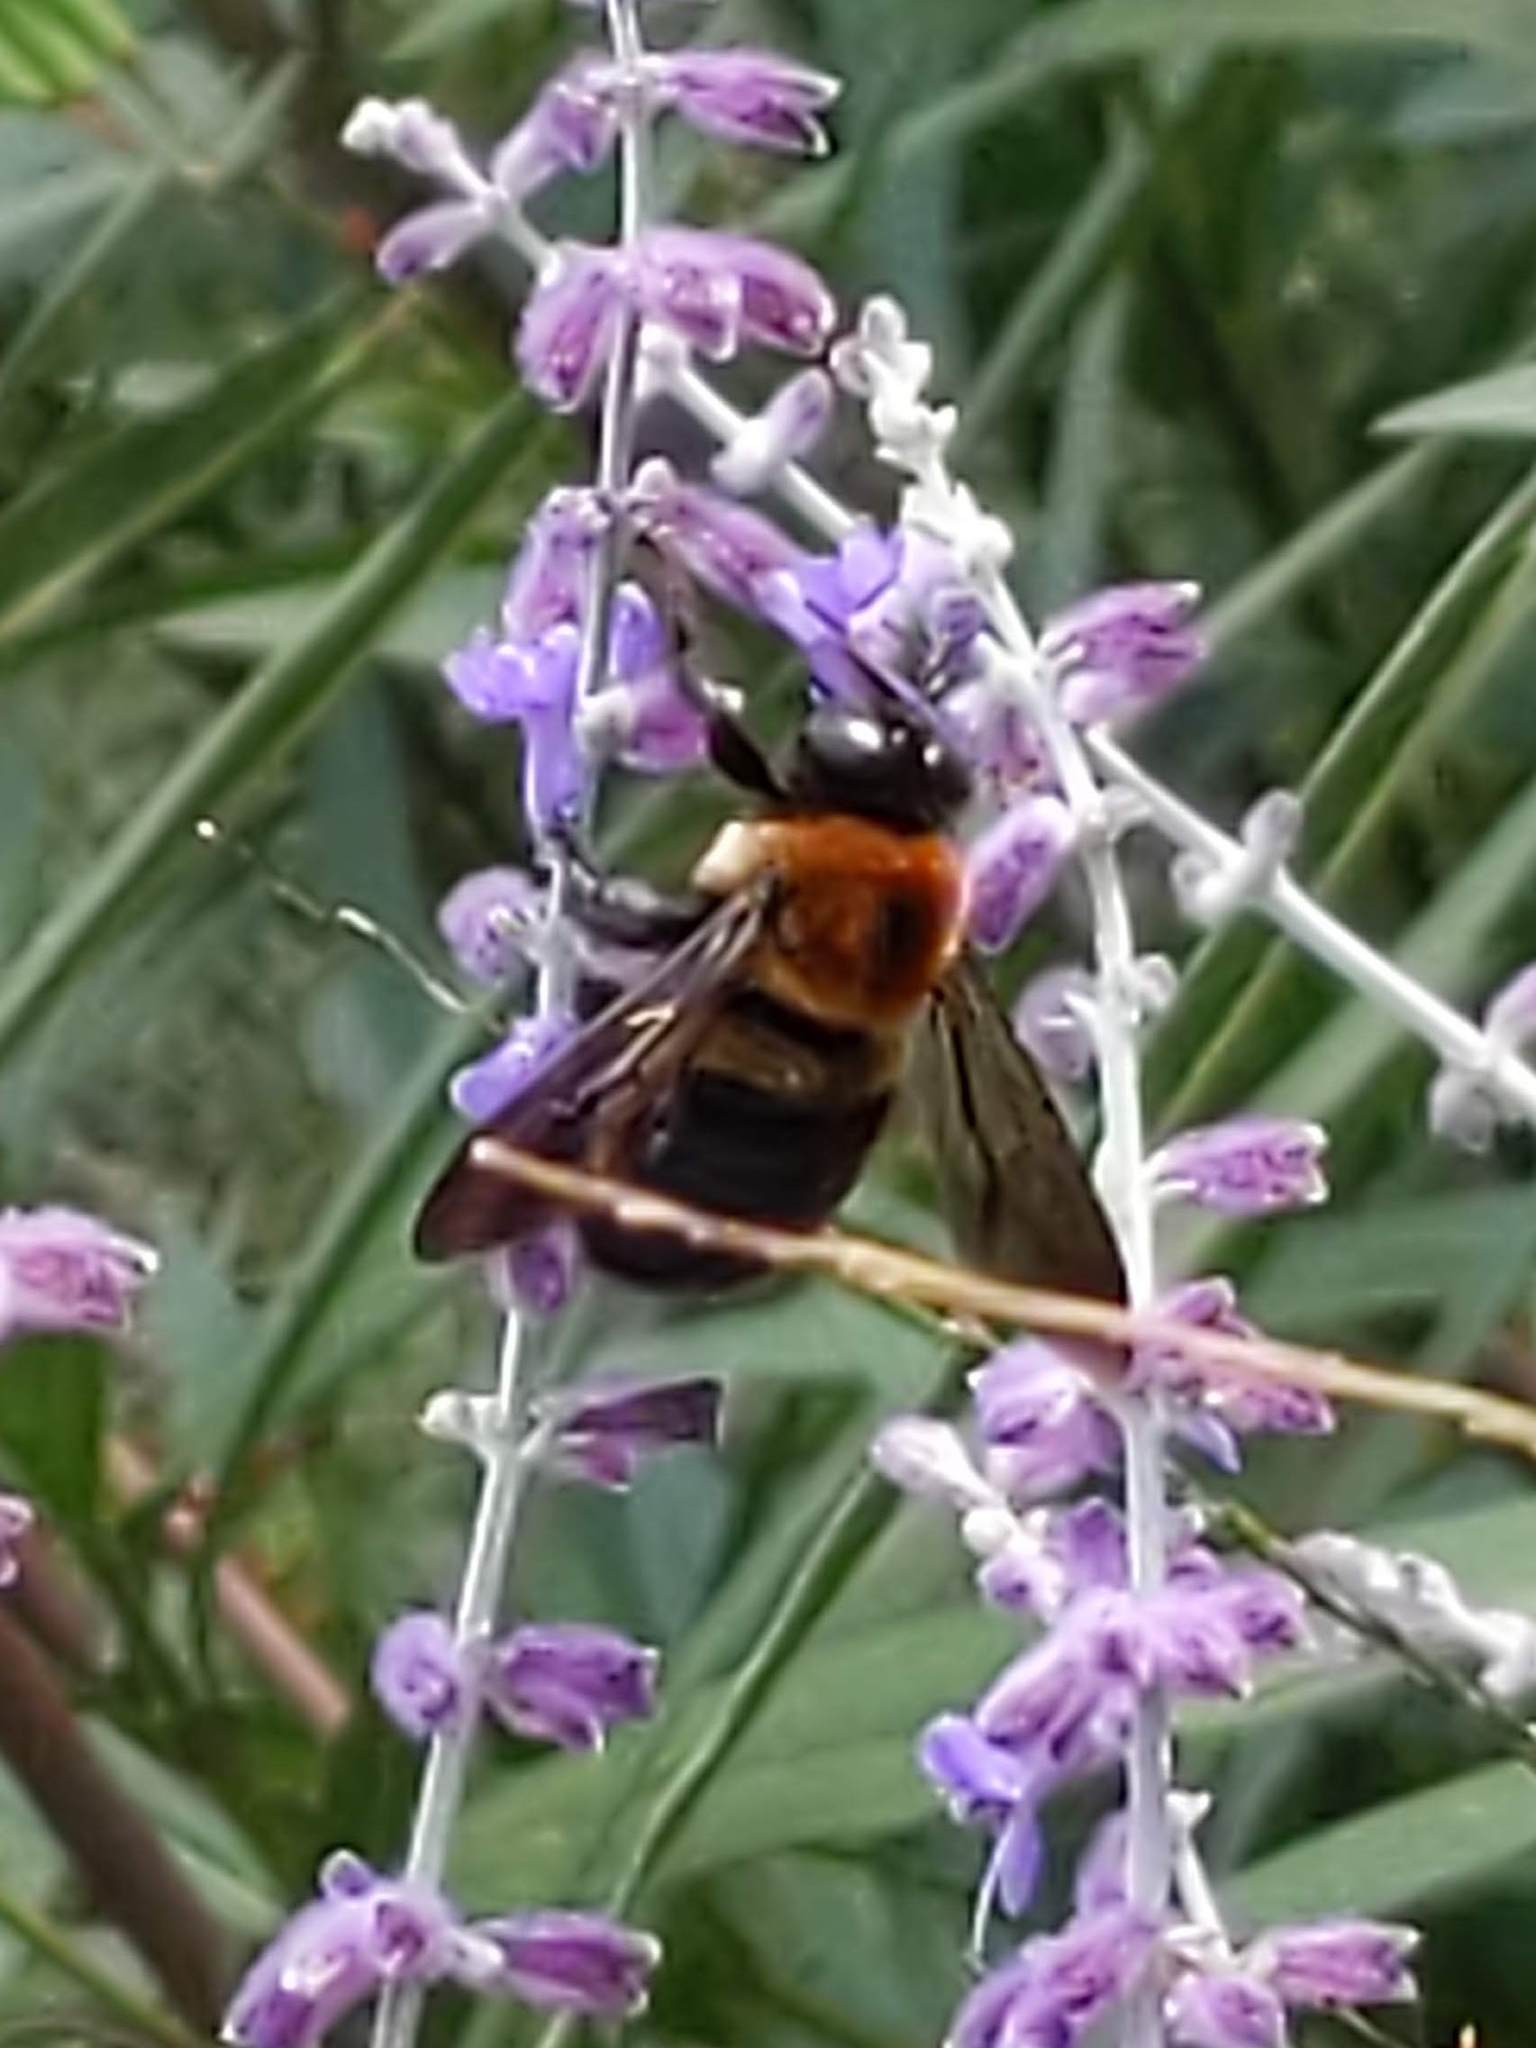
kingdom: Animalia
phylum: Arthropoda
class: Insecta
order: Hymenoptera
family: Apidae
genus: Xylocopa
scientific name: Xylocopa virginica
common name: Carpenter bee
